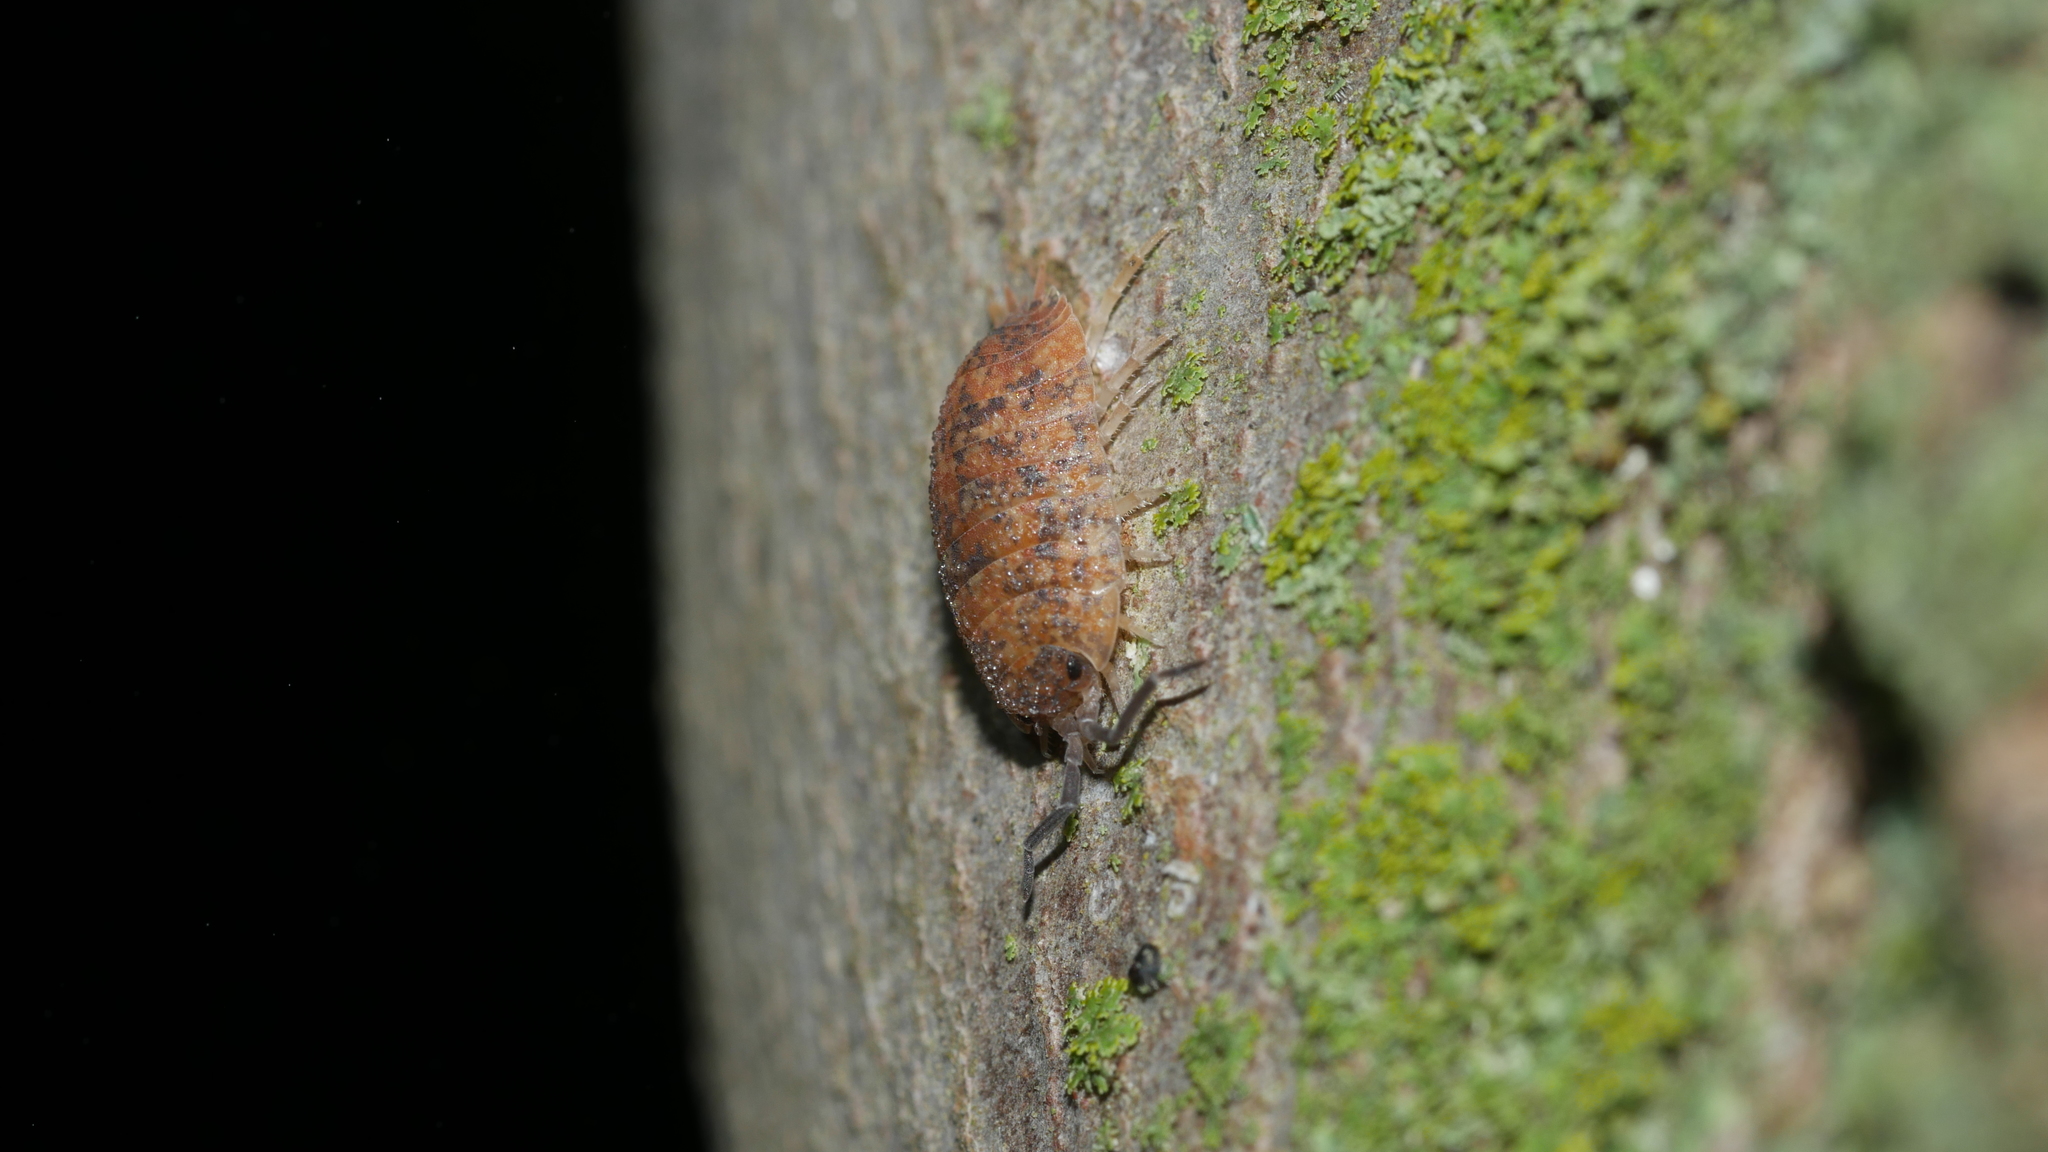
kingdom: Animalia
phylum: Arthropoda
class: Malacostraca
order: Isopoda
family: Porcellionidae
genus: Porcellio
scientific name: Porcellio scaber
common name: Common rough woodlouse
